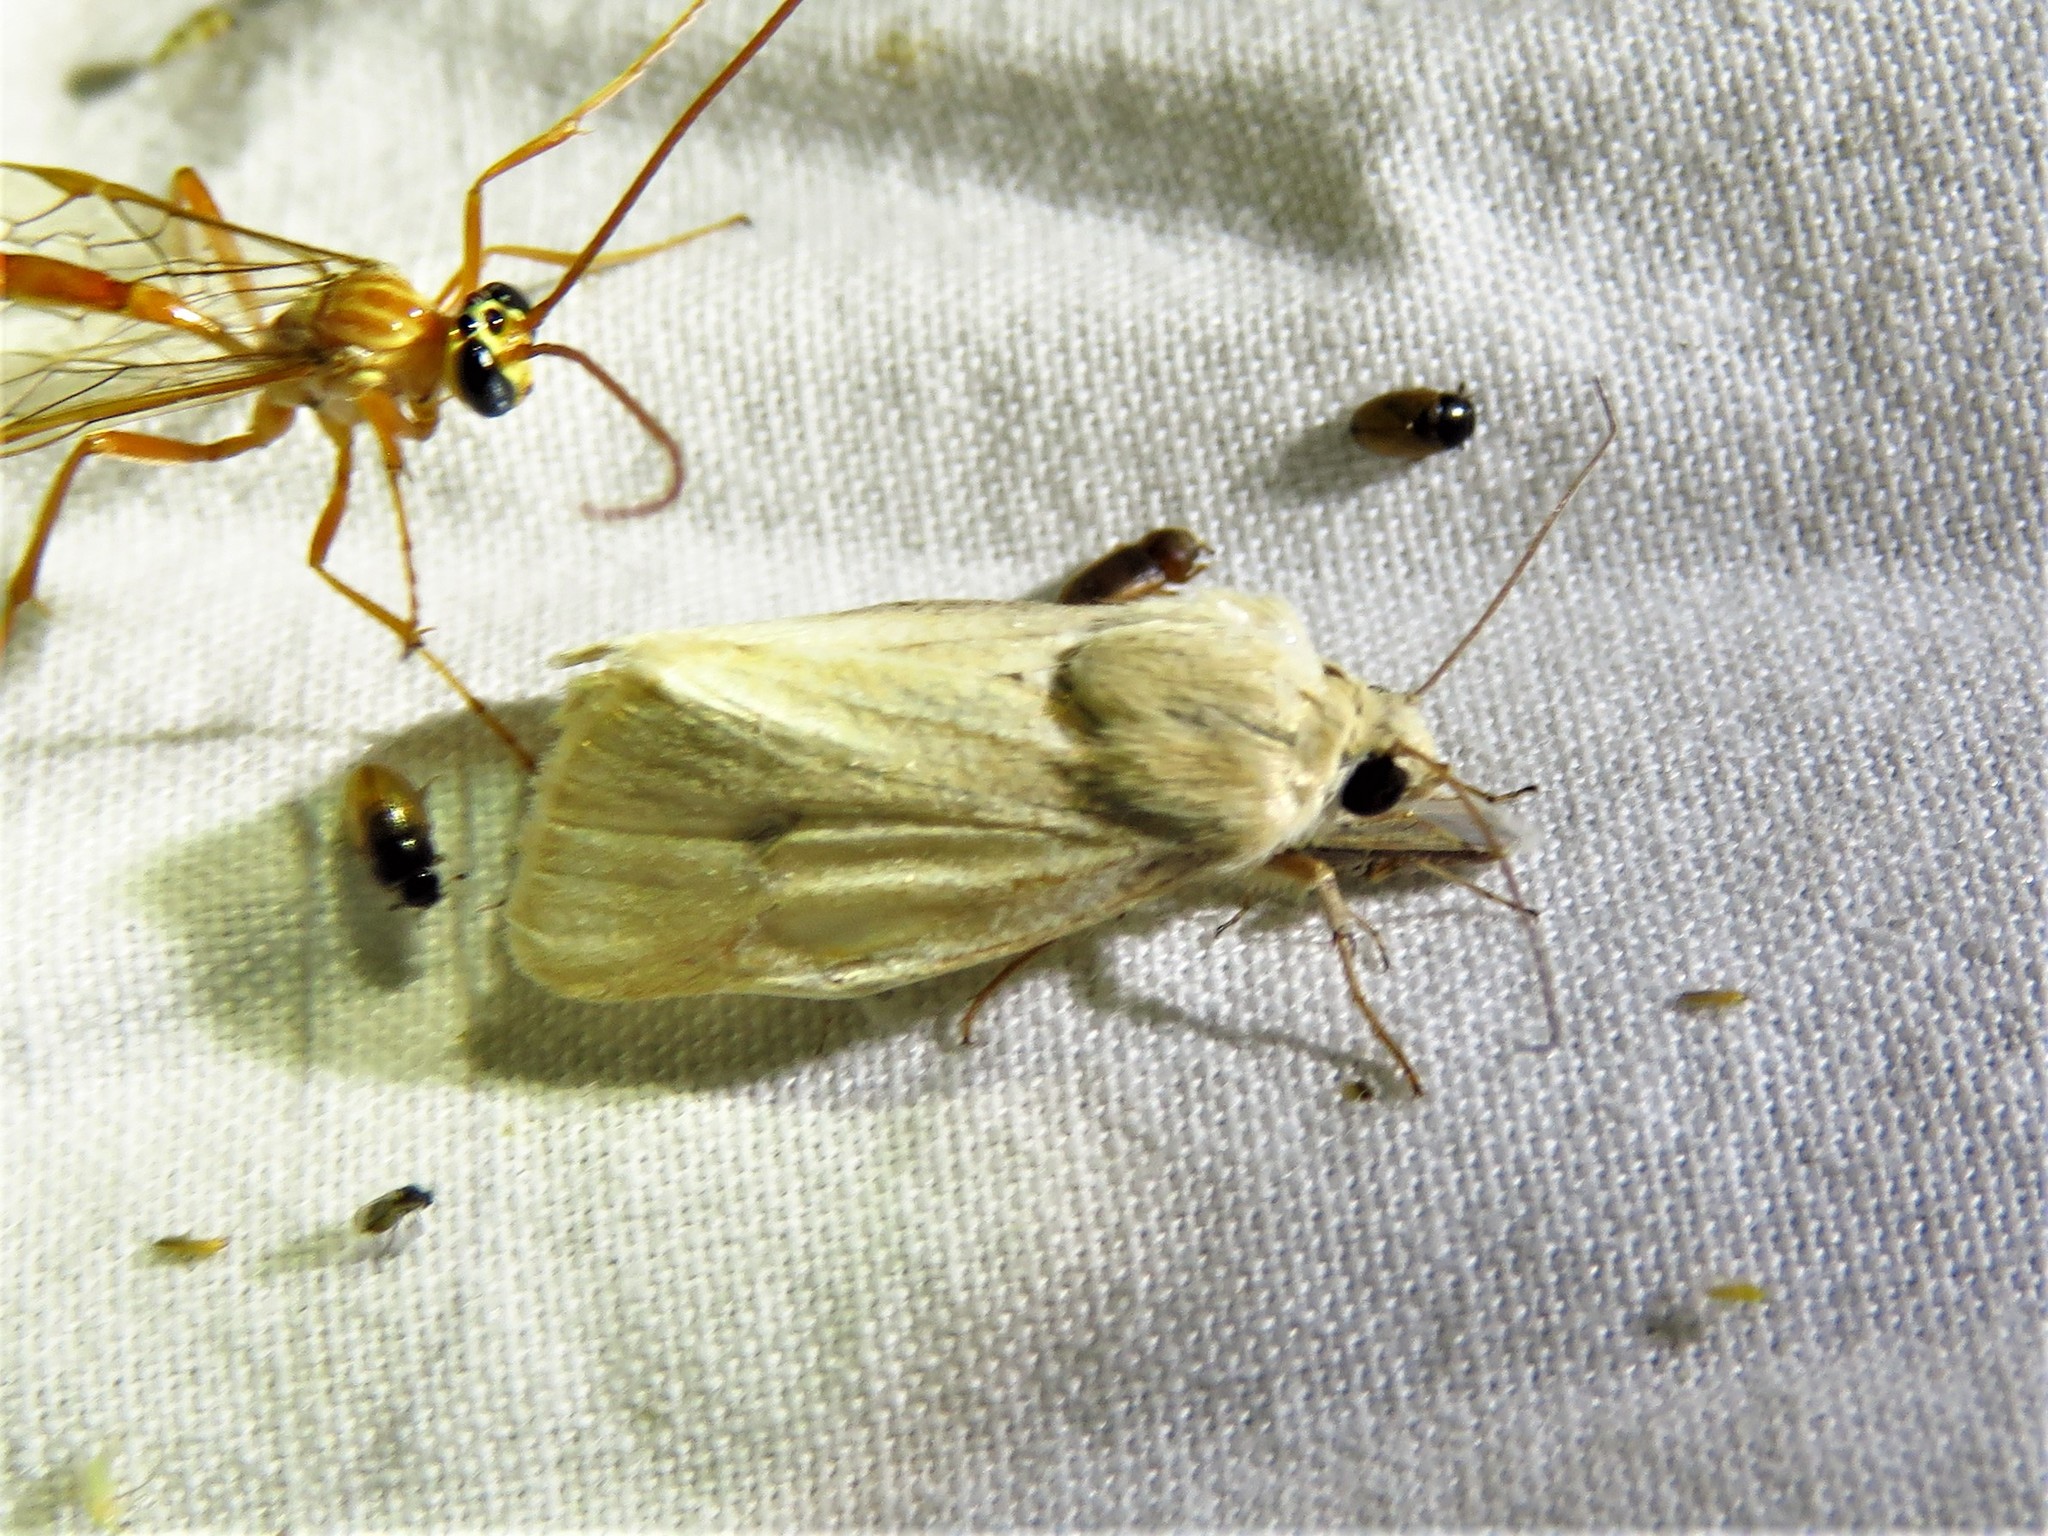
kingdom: Animalia
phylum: Arthropoda
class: Insecta
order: Lepidoptera
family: Noctuidae
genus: Heliocheilus
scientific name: Heliocheilus paradoxus
